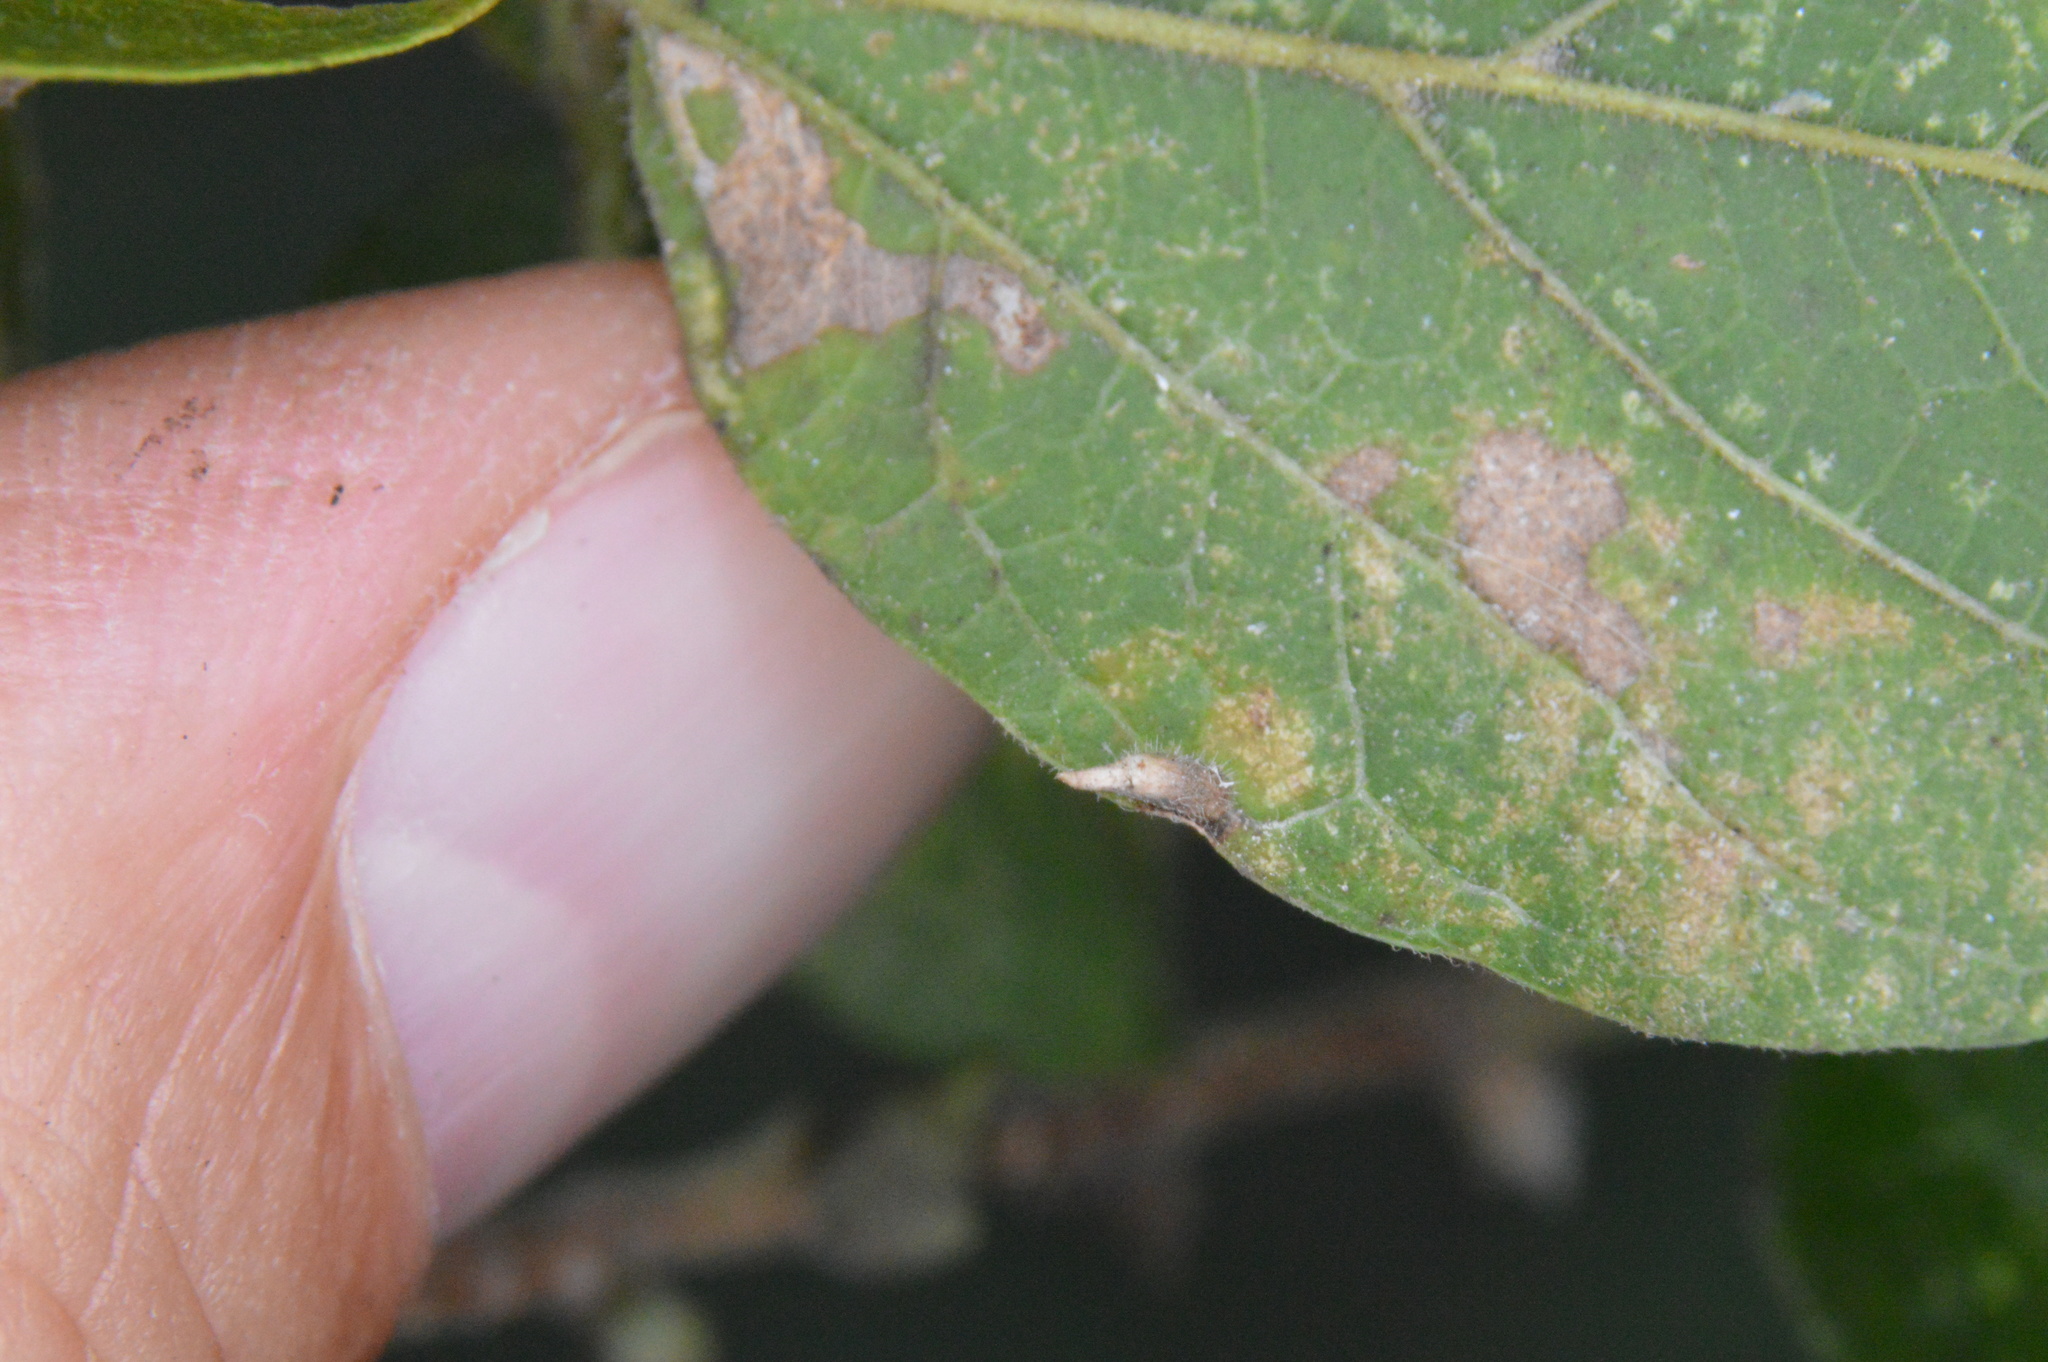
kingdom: Animalia
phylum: Arthropoda
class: Insecta
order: Diptera
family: Cecidomyiidae
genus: Celticecis
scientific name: Celticecis supina
